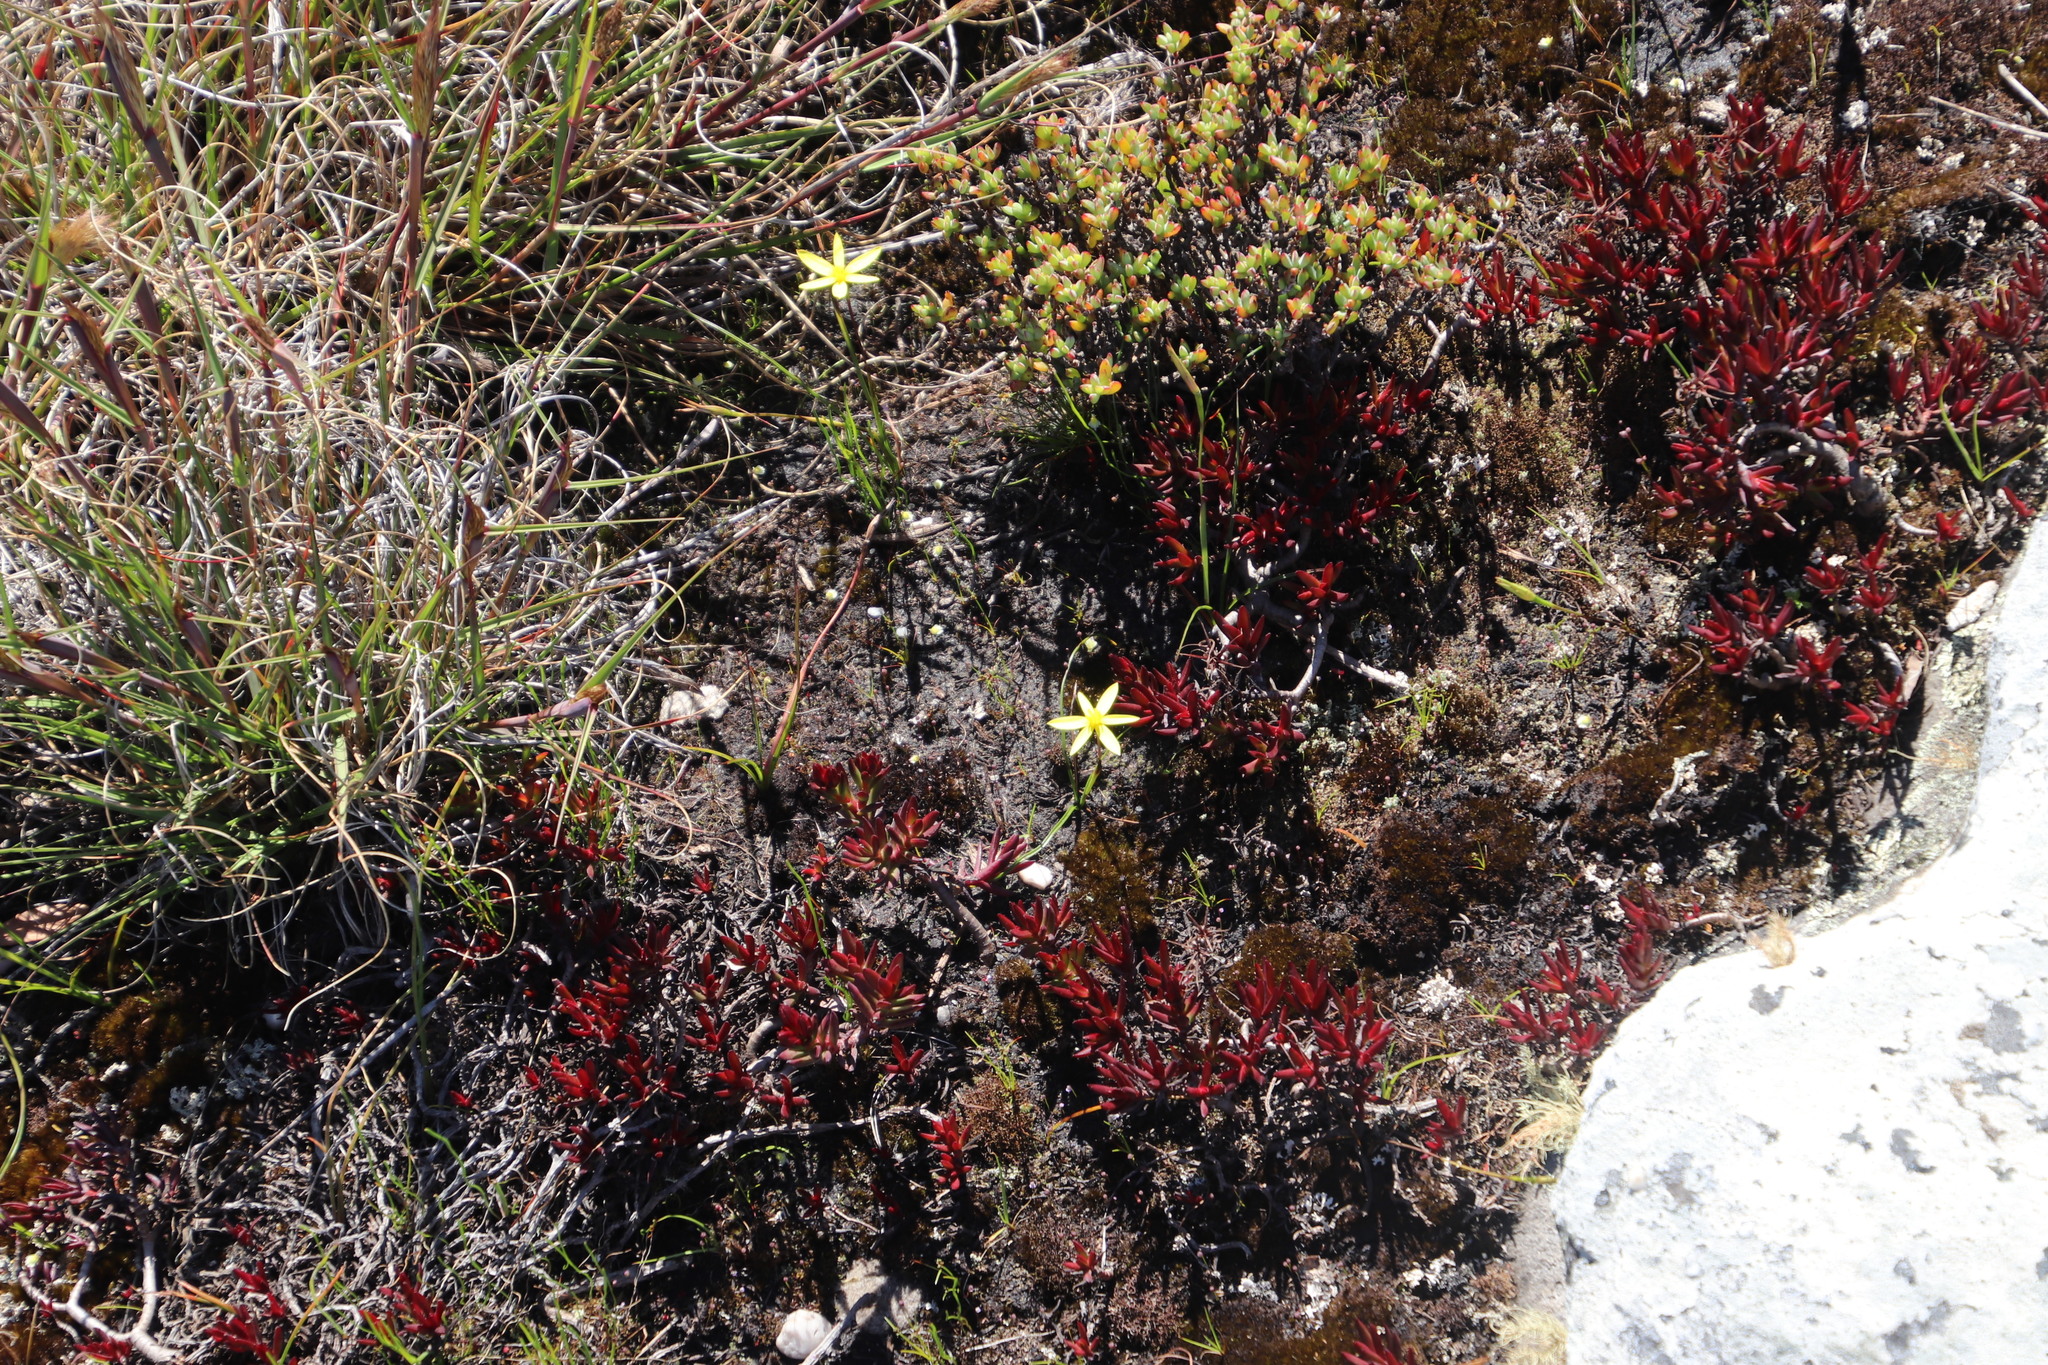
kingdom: Plantae
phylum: Tracheophyta
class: Liliopsida
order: Asparagales
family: Hypoxidaceae
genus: Pauridia
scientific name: Pauridia capensis
